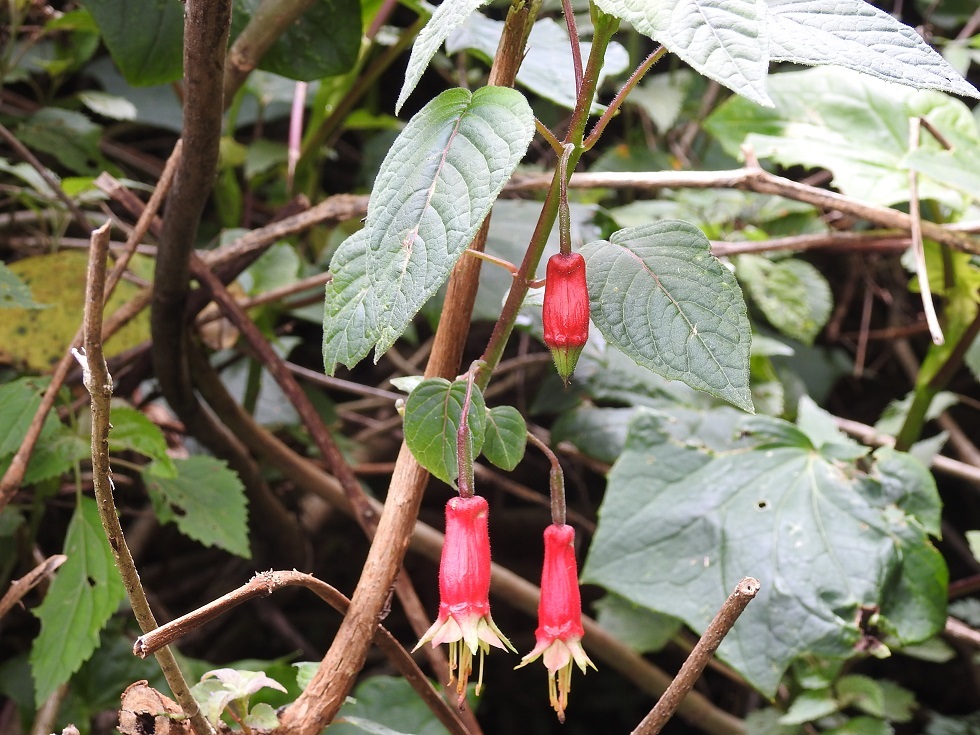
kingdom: Plantae
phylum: Tracheophyta
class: Magnoliopsida
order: Myrtales
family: Onagraceae
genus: Fuchsia
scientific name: Fuchsia splendens
